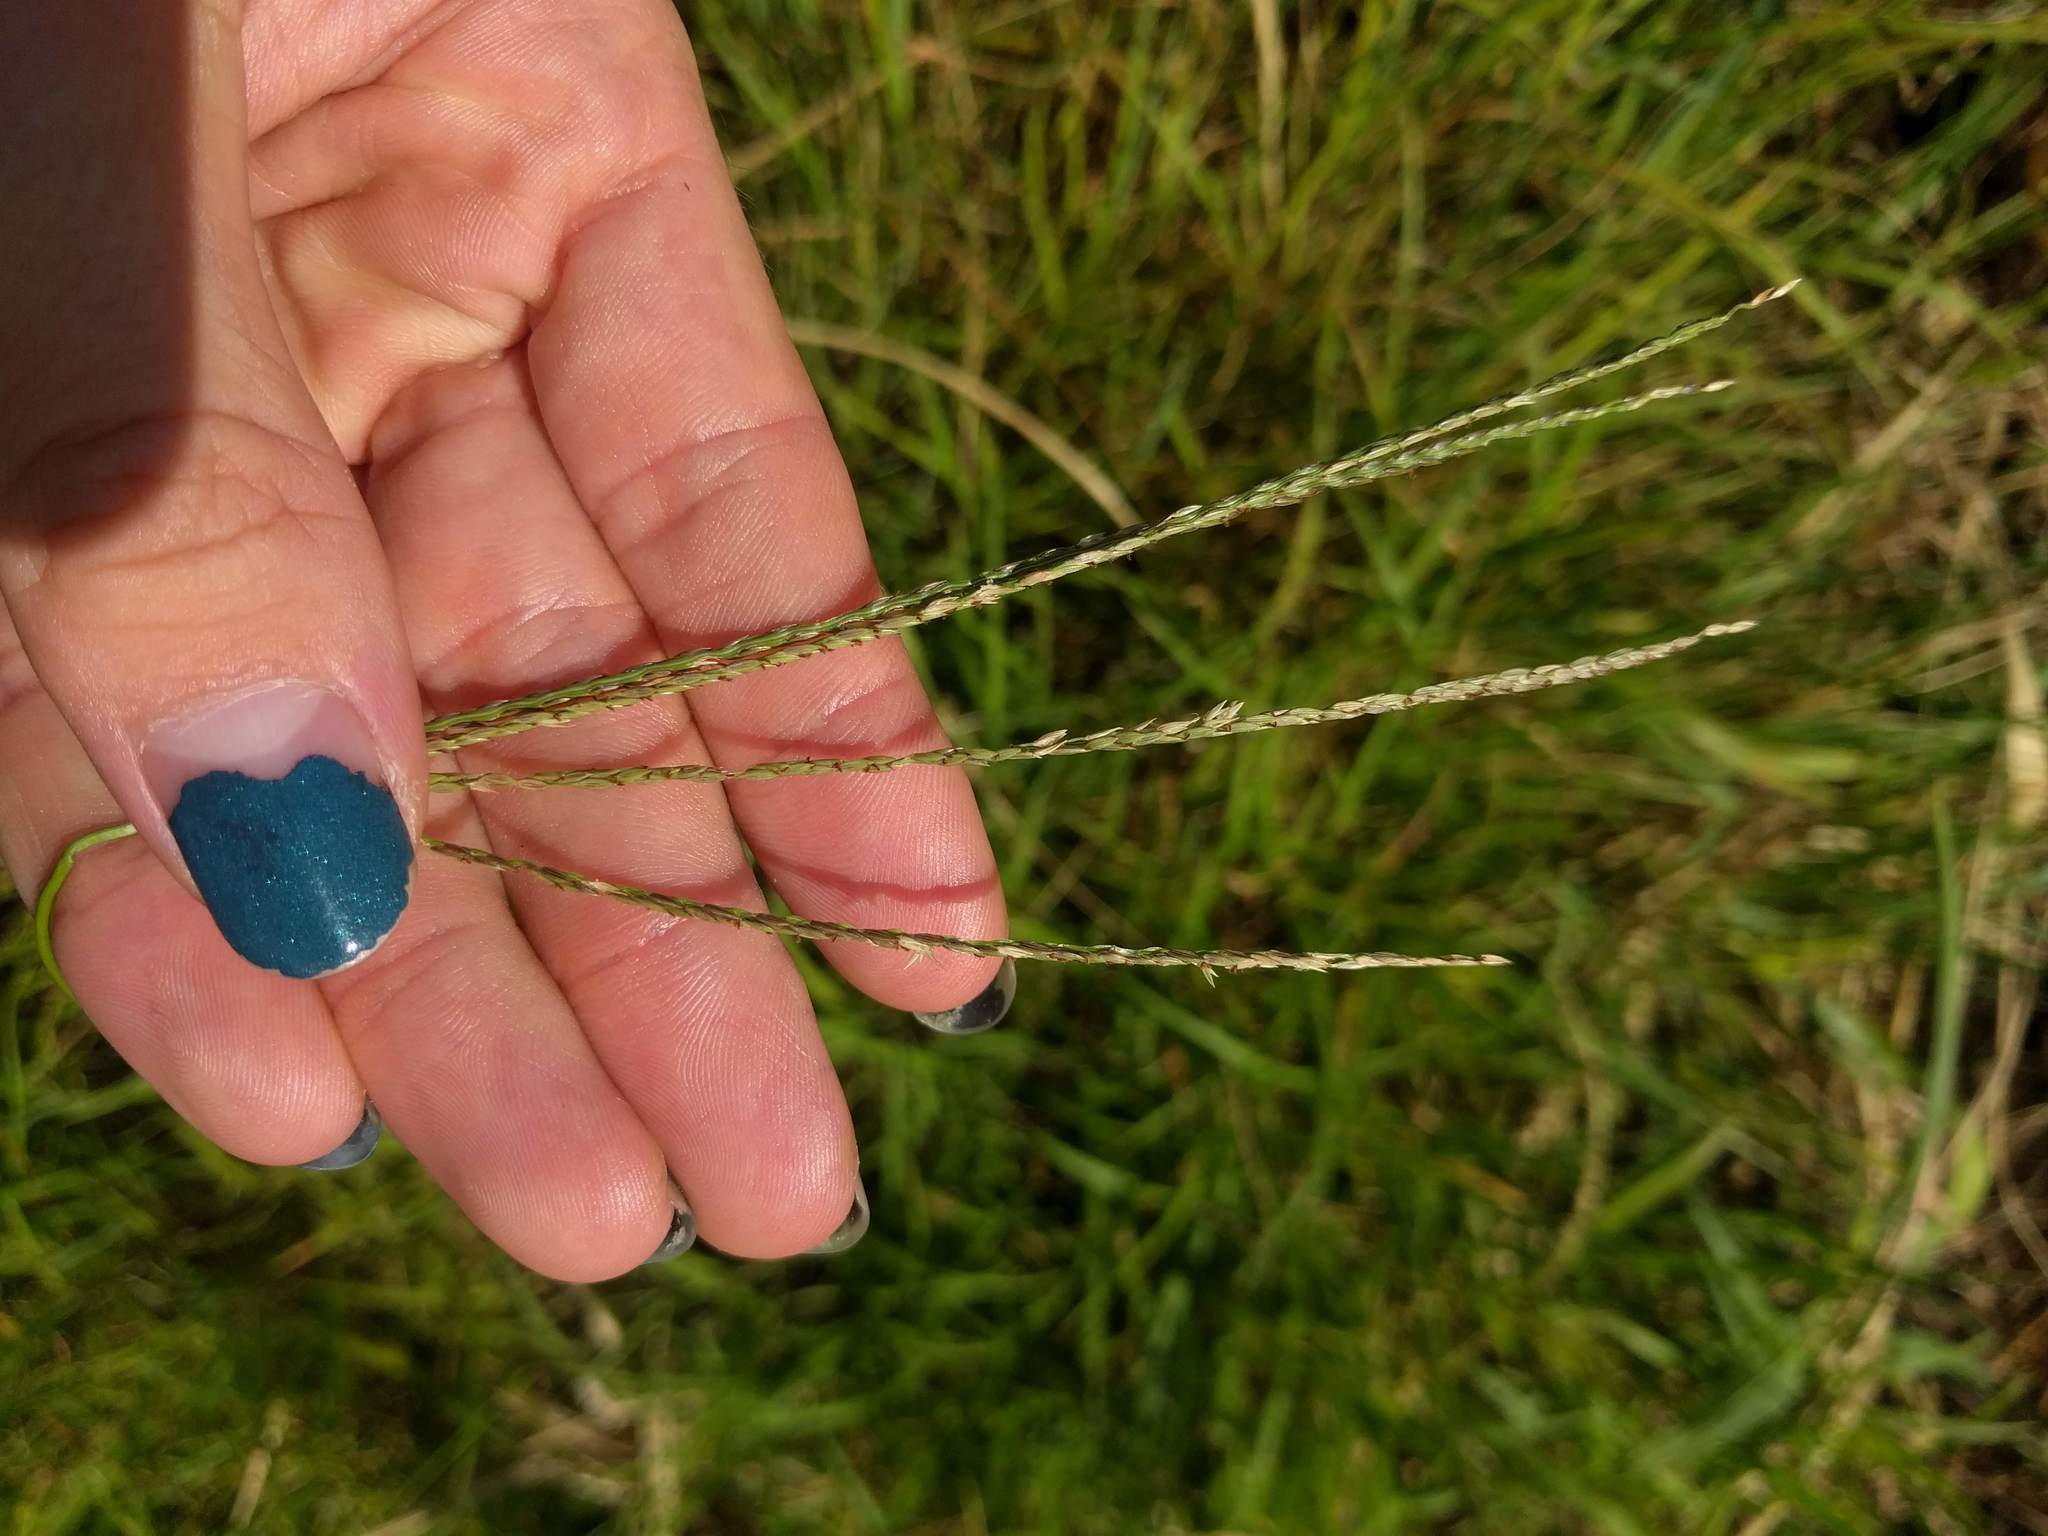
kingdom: Plantae
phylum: Tracheophyta
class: Liliopsida
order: Poales
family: Poaceae
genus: Digitaria
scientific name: Digitaria eriantha
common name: Digitgrass
